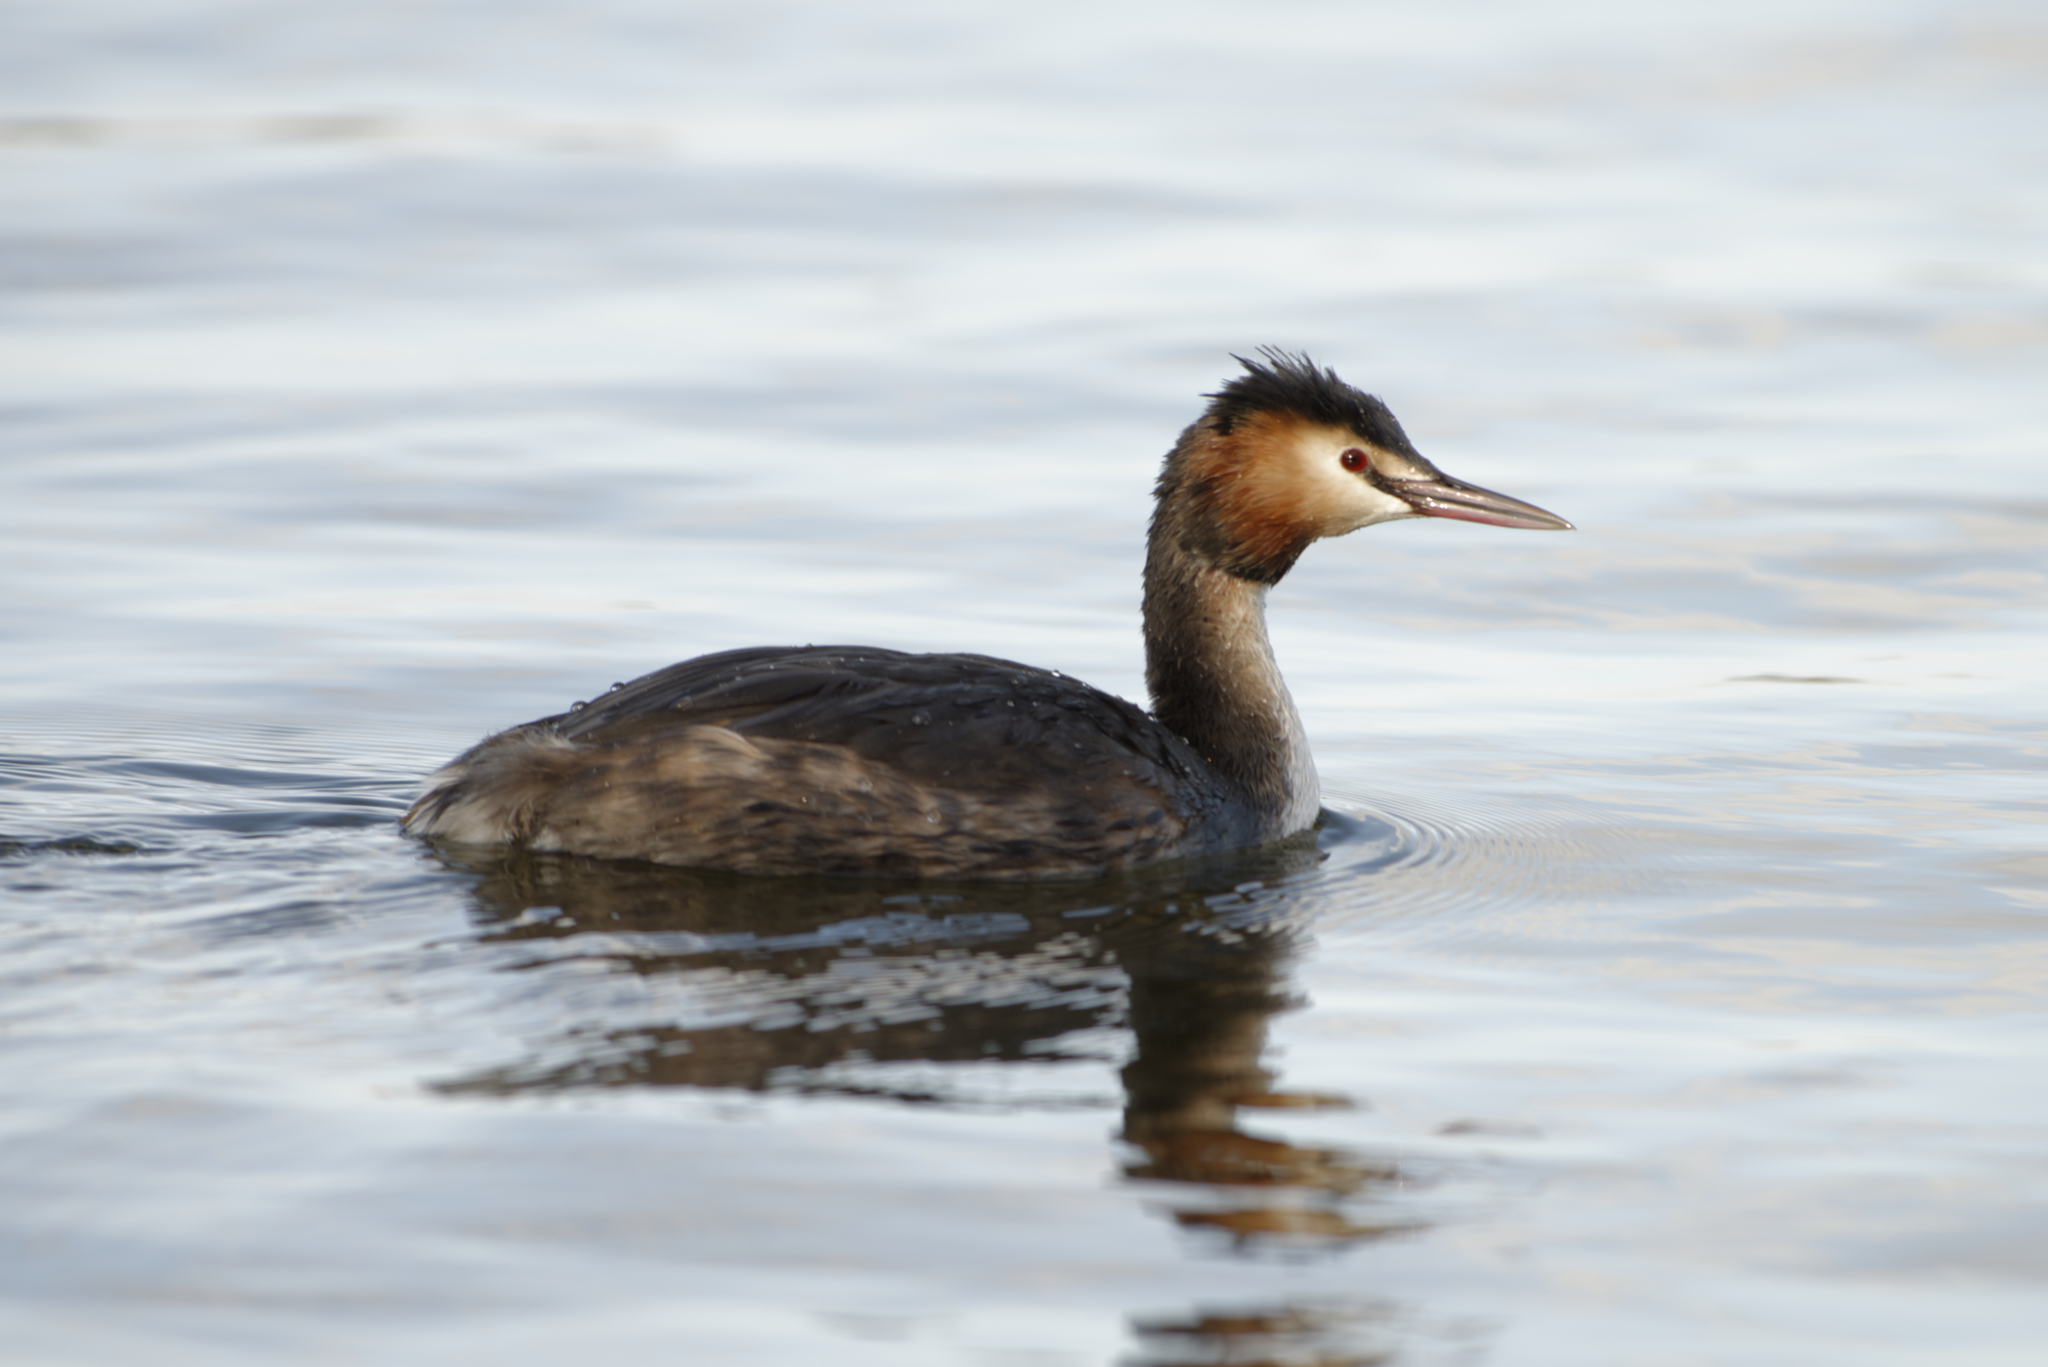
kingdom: Animalia
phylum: Chordata
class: Aves
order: Podicipediformes
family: Podicipedidae
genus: Podiceps
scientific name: Podiceps cristatus
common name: Great crested grebe
